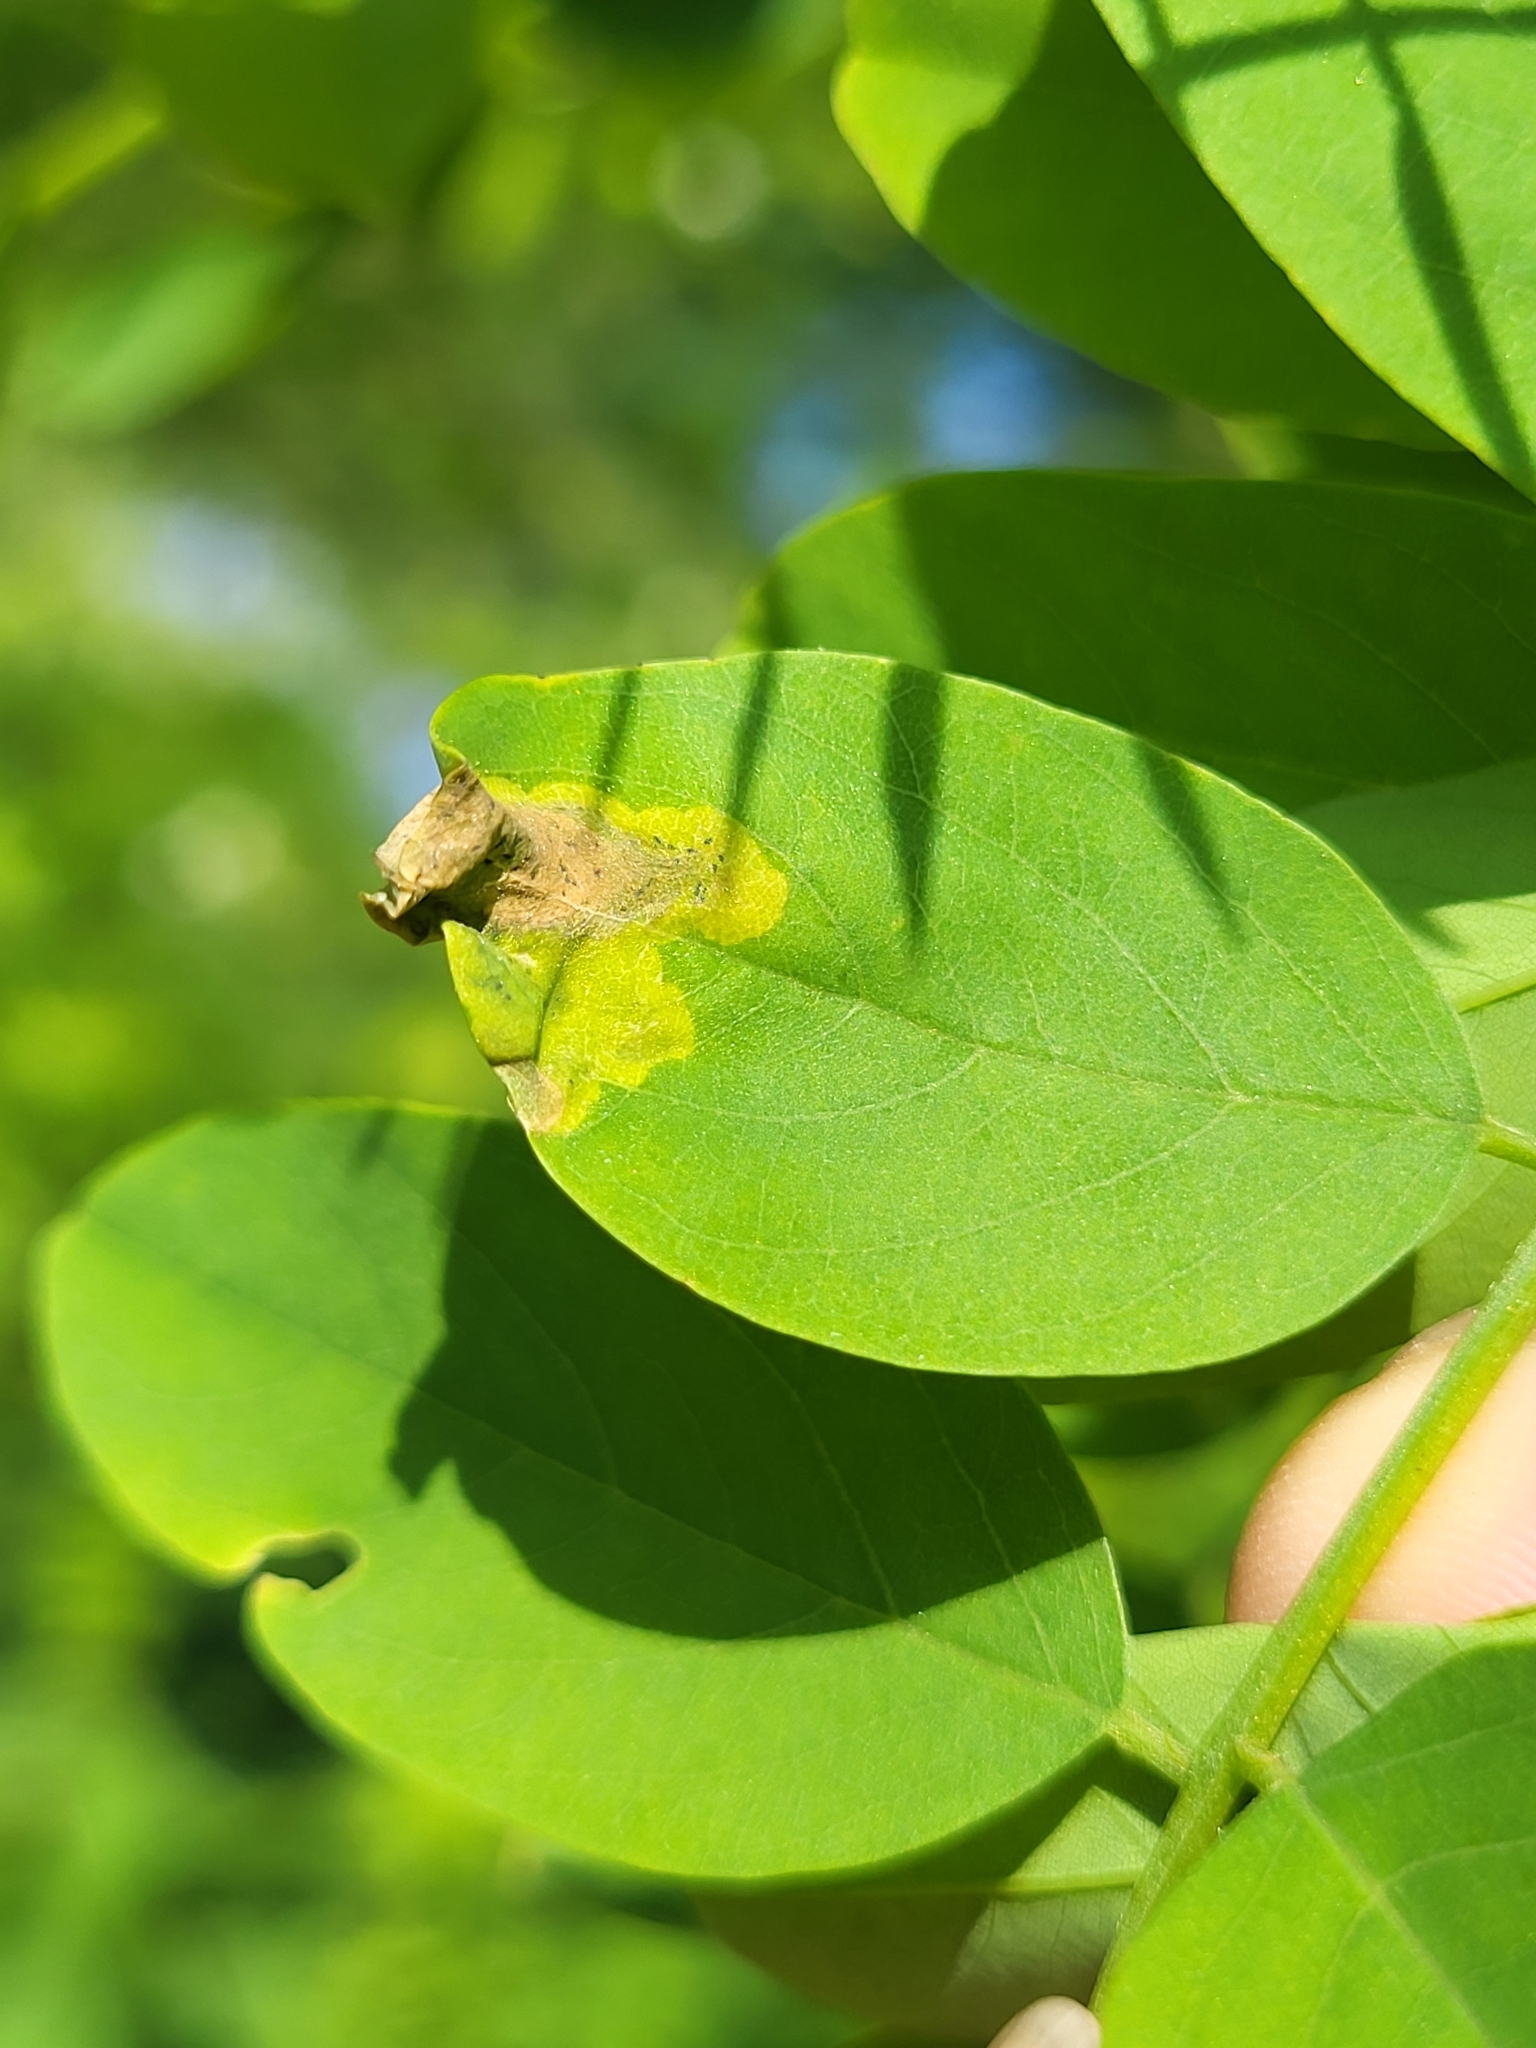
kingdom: Animalia
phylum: Arthropoda
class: Insecta
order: Diptera
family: Agromyzidae
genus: Agromyza
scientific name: Agromyza soka
